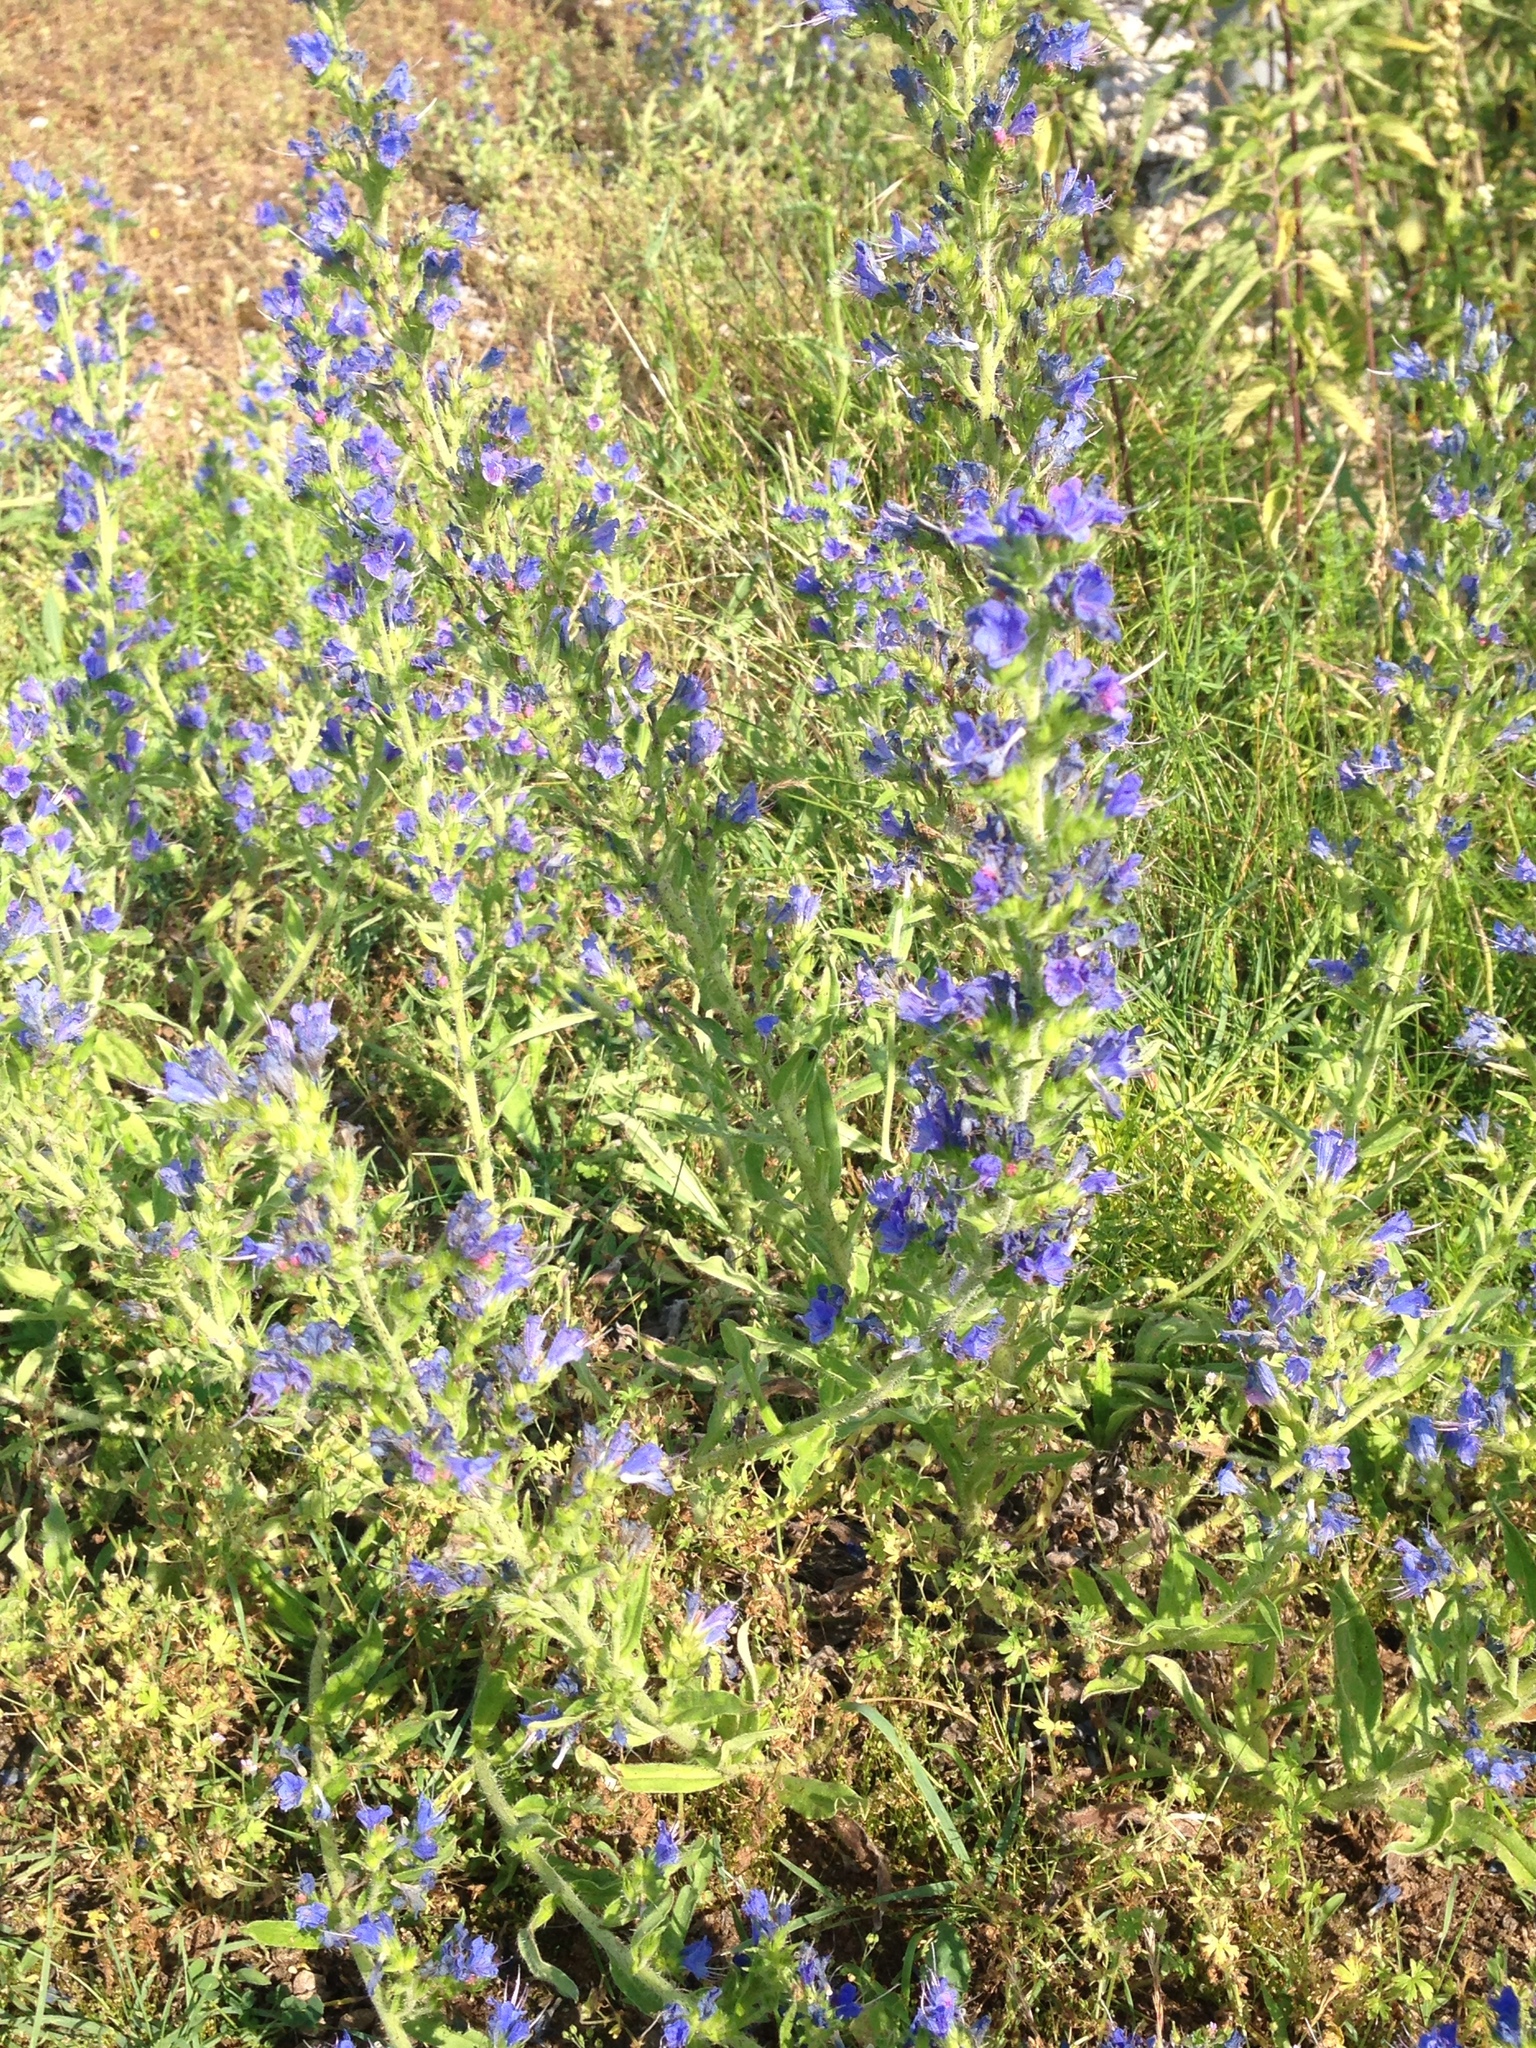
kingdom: Plantae
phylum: Tracheophyta
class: Magnoliopsida
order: Boraginales
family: Boraginaceae
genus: Echium
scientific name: Echium vulgare
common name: Common viper's bugloss
